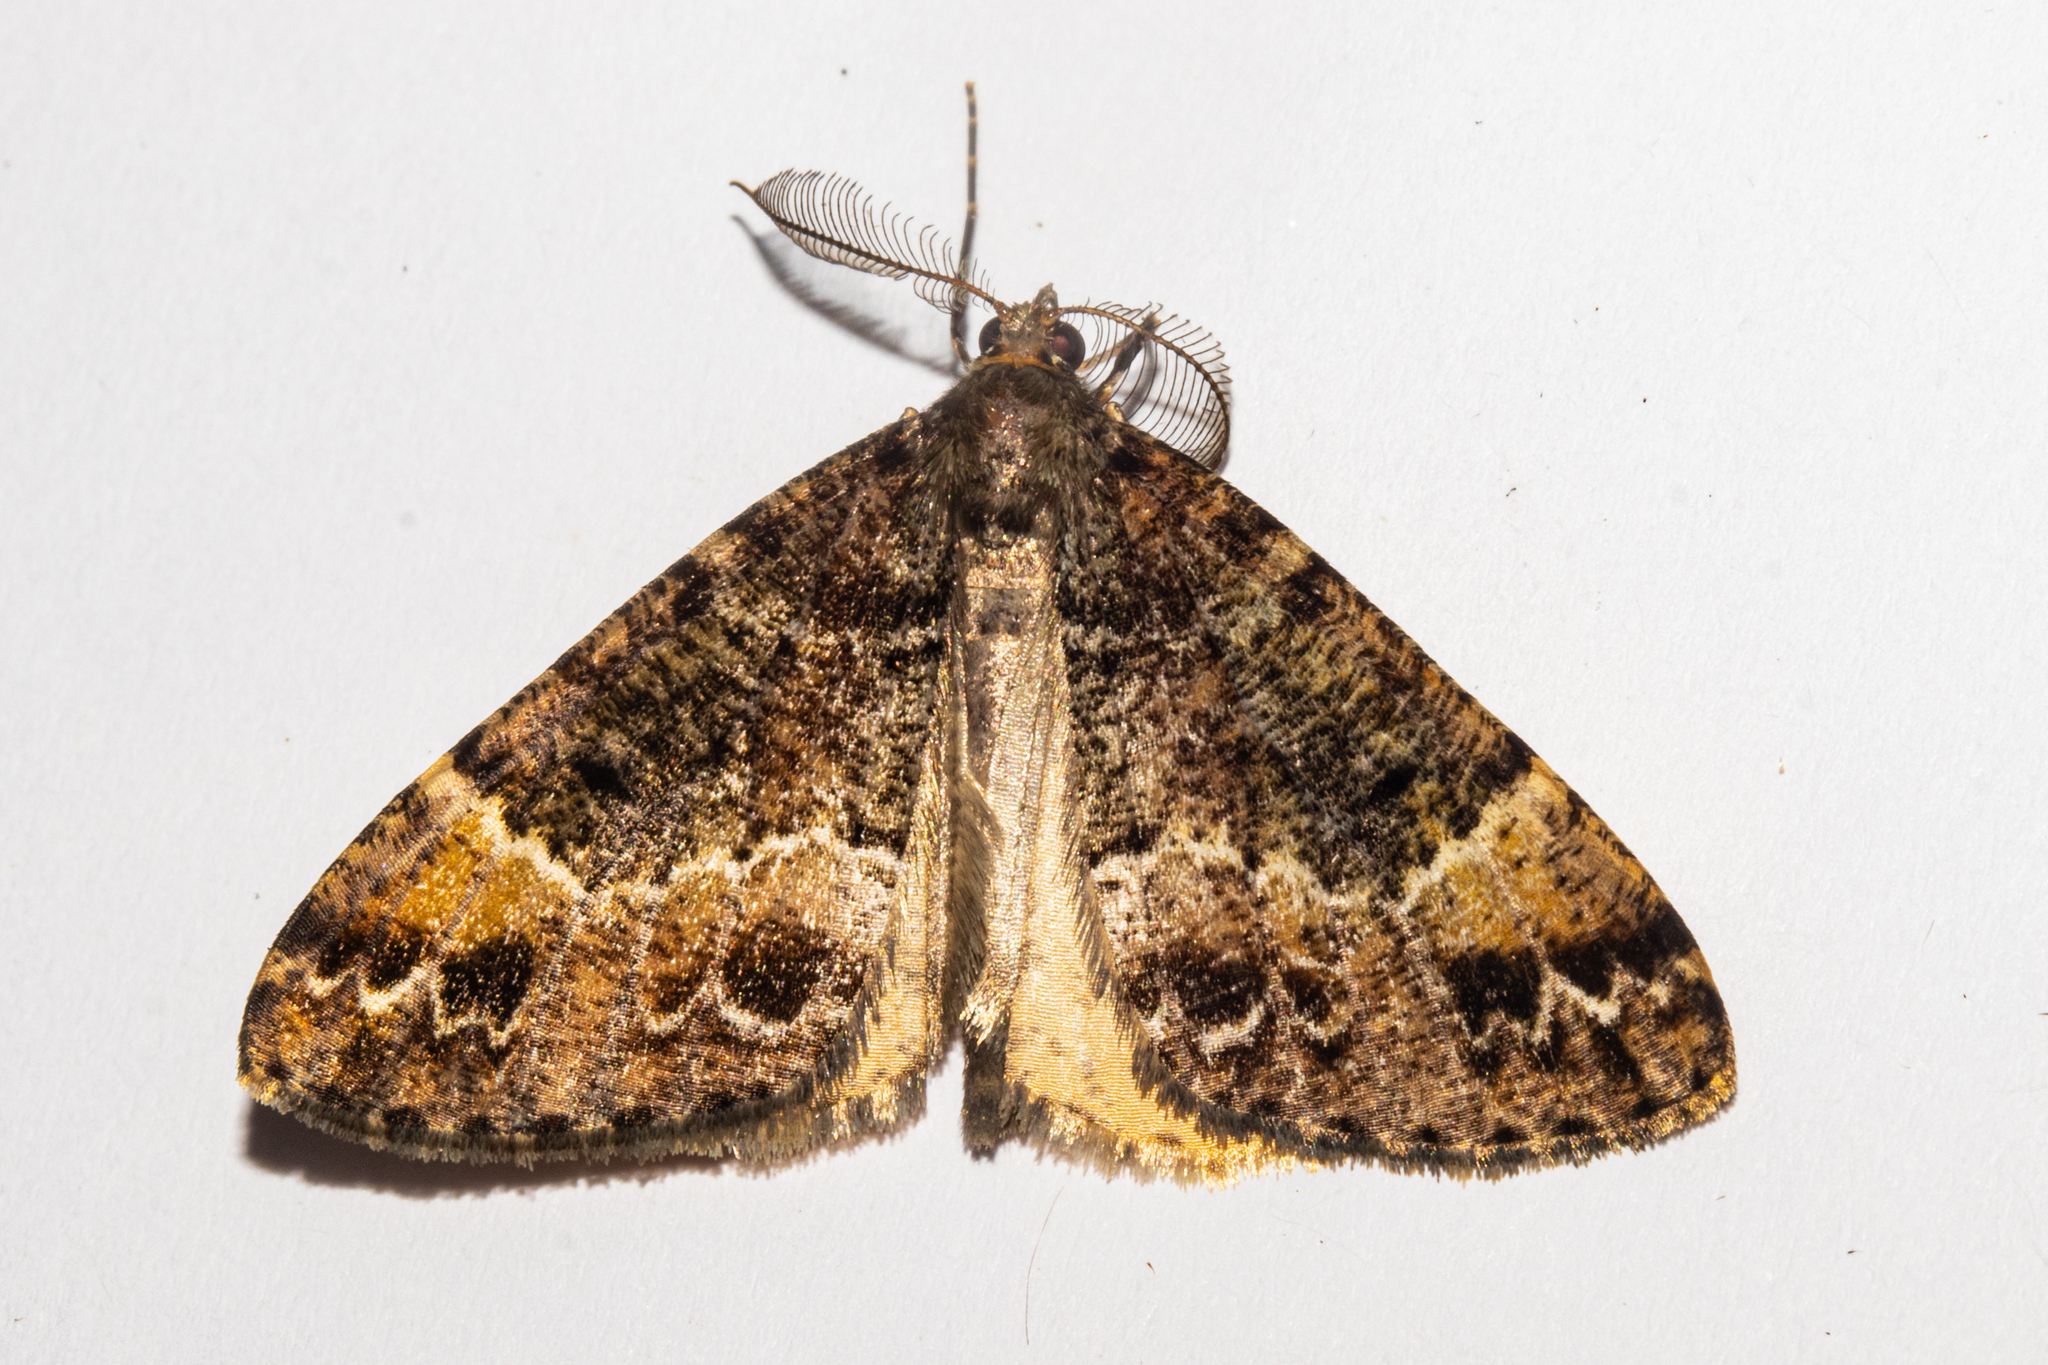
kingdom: Animalia
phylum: Arthropoda
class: Insecta
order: Lepidoptera
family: Geometridae
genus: Pseudocoremia
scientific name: Pseudocoremia productata
